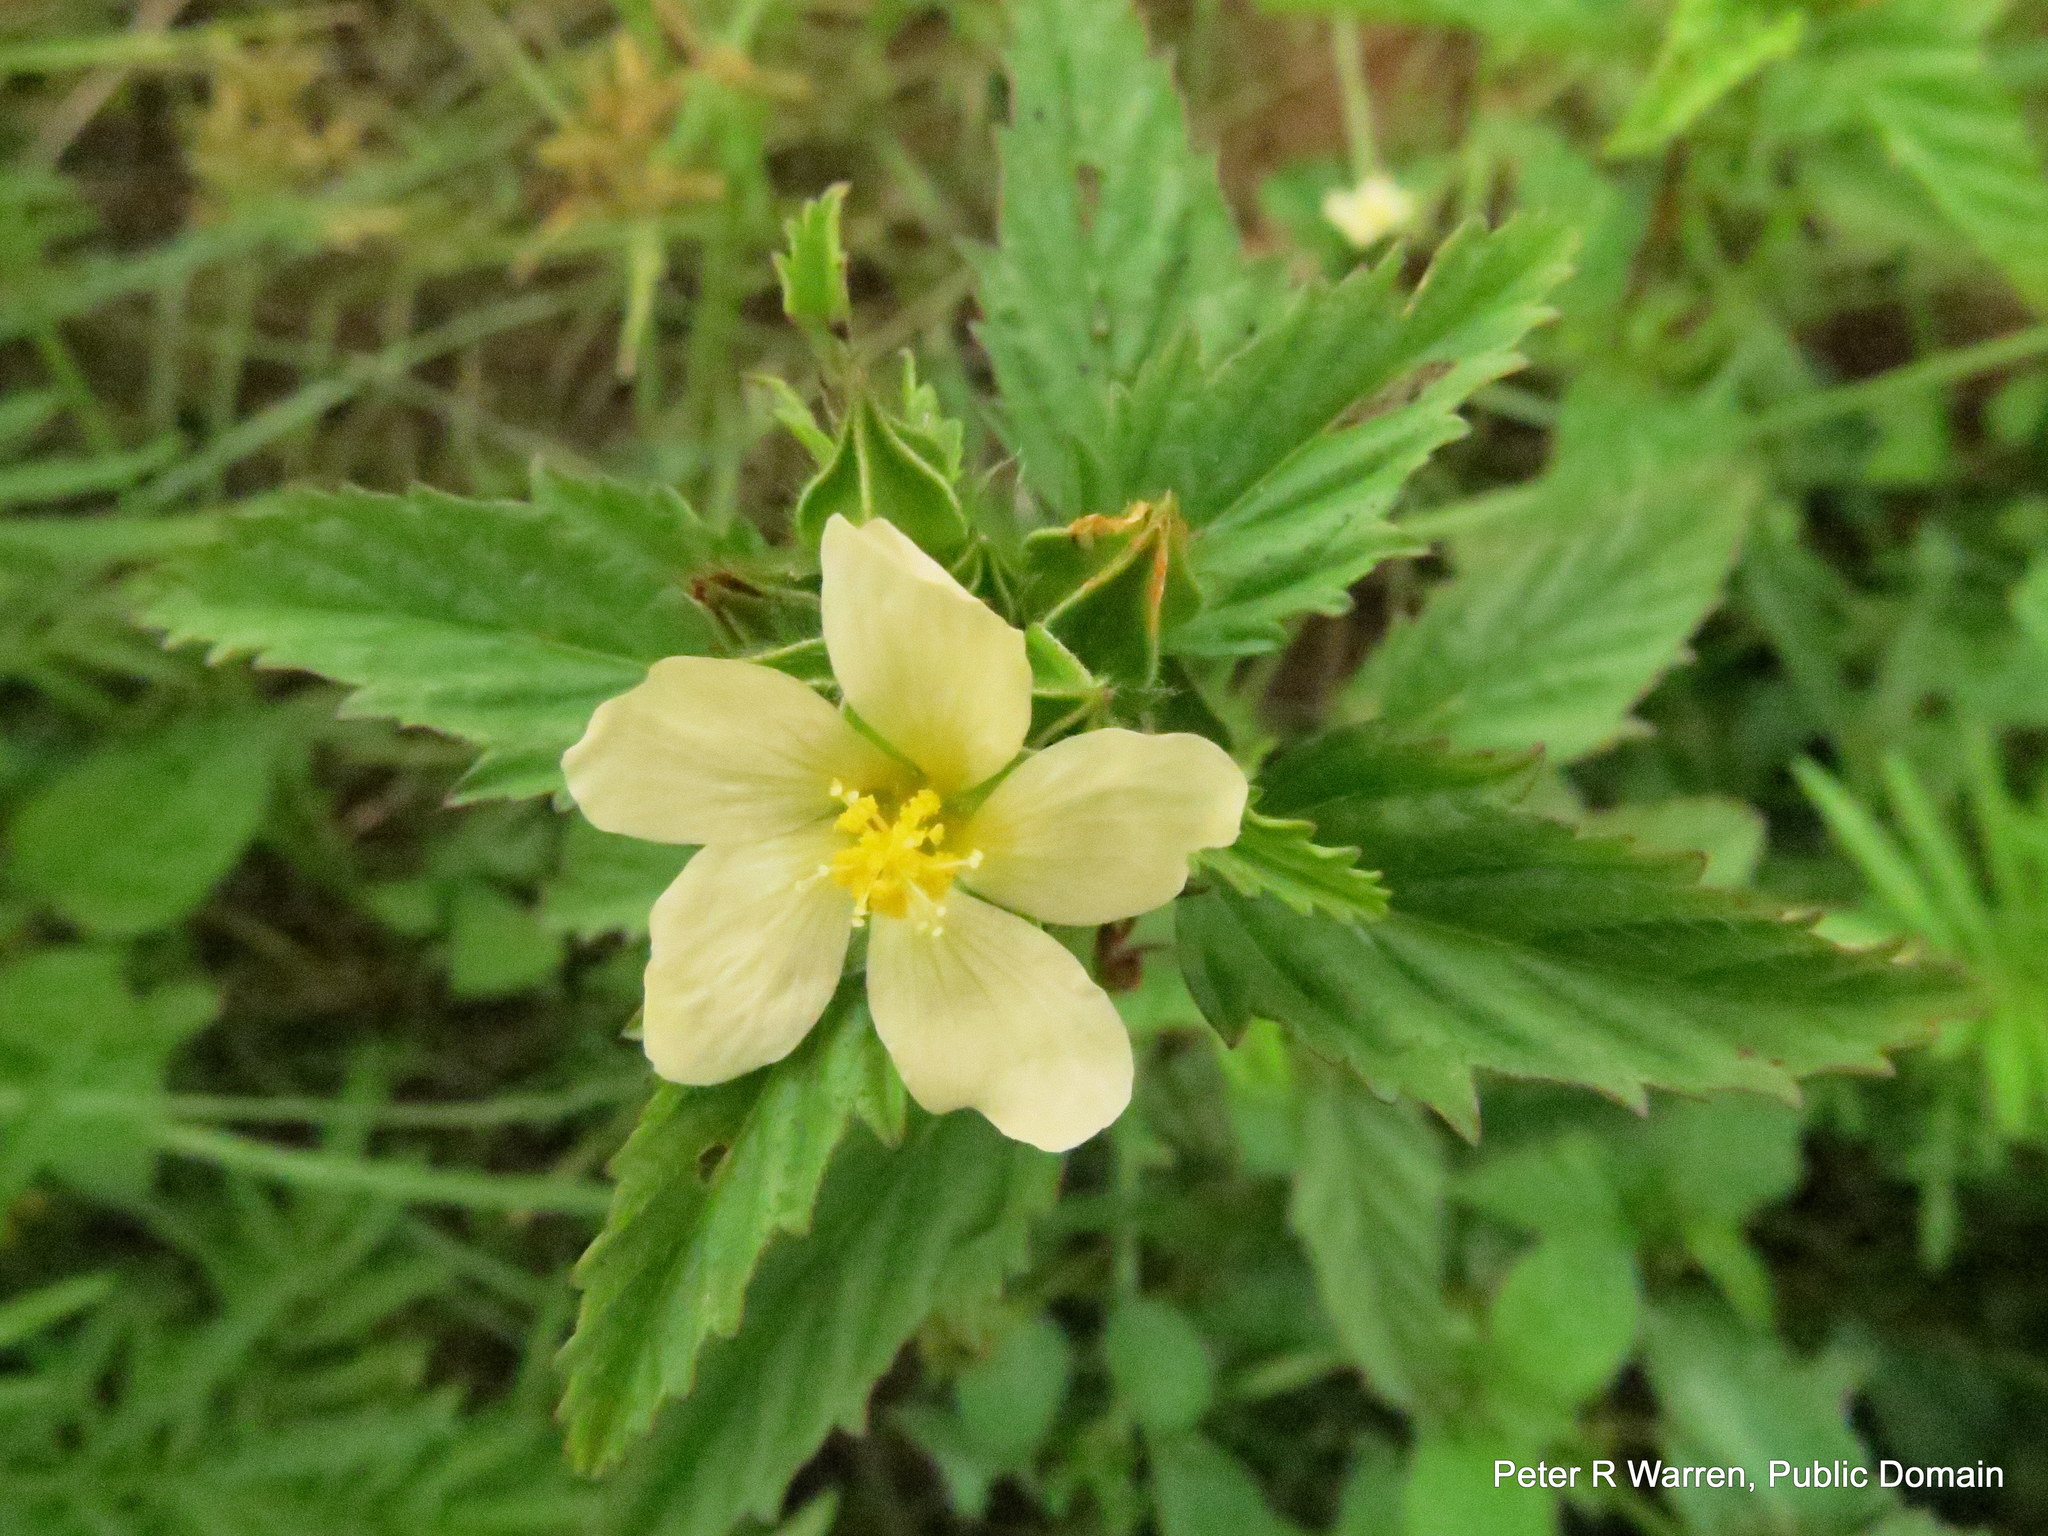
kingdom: Plantae
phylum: Tracheophyta
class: Magnoliopsida
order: Malvales
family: Malvaceae
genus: Malvastrum
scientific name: Malvastrum coromandelianum
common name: Threelobe false mallow
